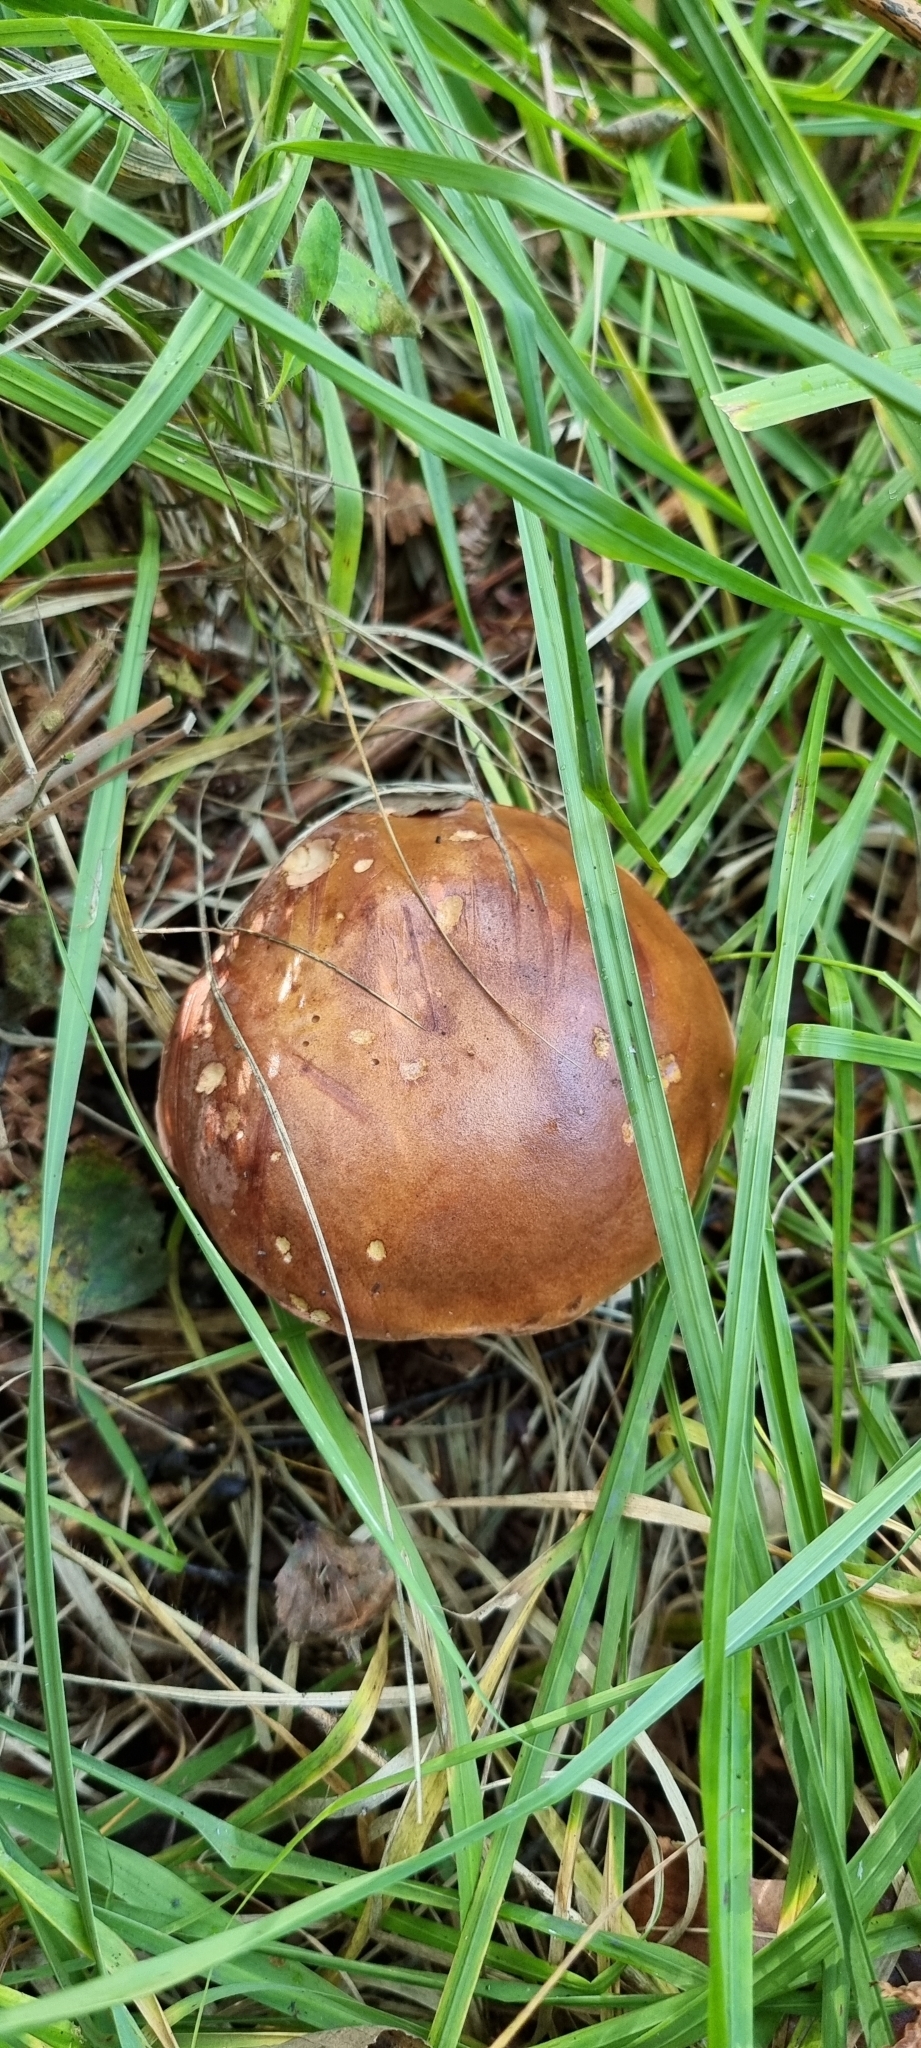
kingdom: Fungi
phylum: Basidiomycota
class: Agaricomycetes
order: Boletales
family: Boletaceae
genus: Imleria
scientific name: Imleria badia
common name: Bay bolete
